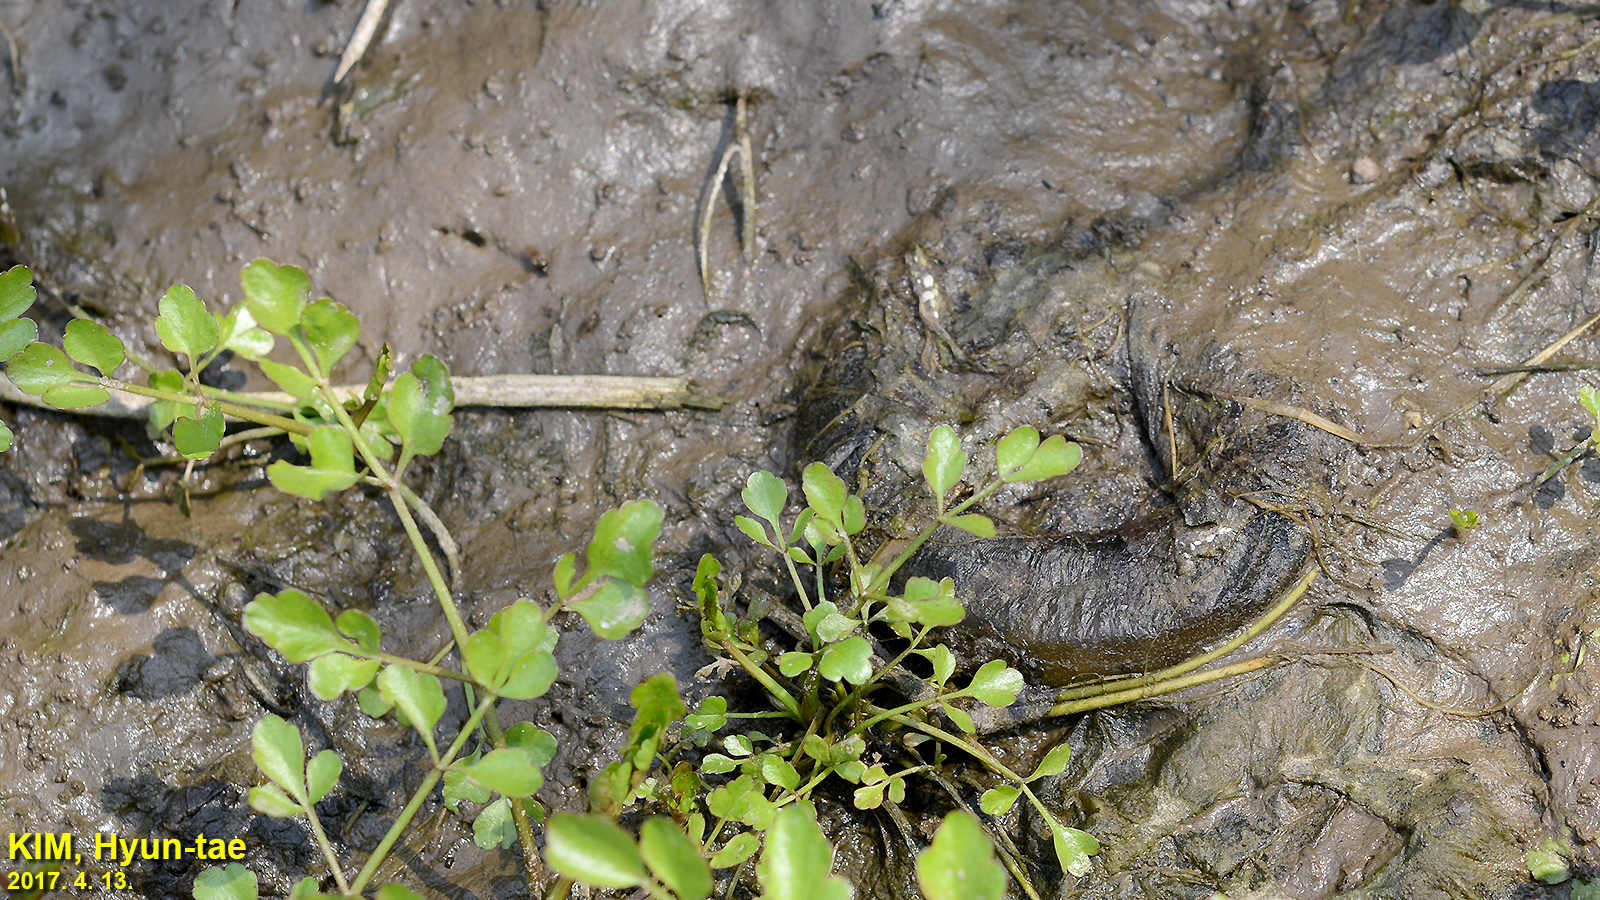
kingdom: Animalia
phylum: Chordata
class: Amphibia
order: Caudata
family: Hynobiidae
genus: Hynobius
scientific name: Hynobius leechii
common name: Gensan salamander
